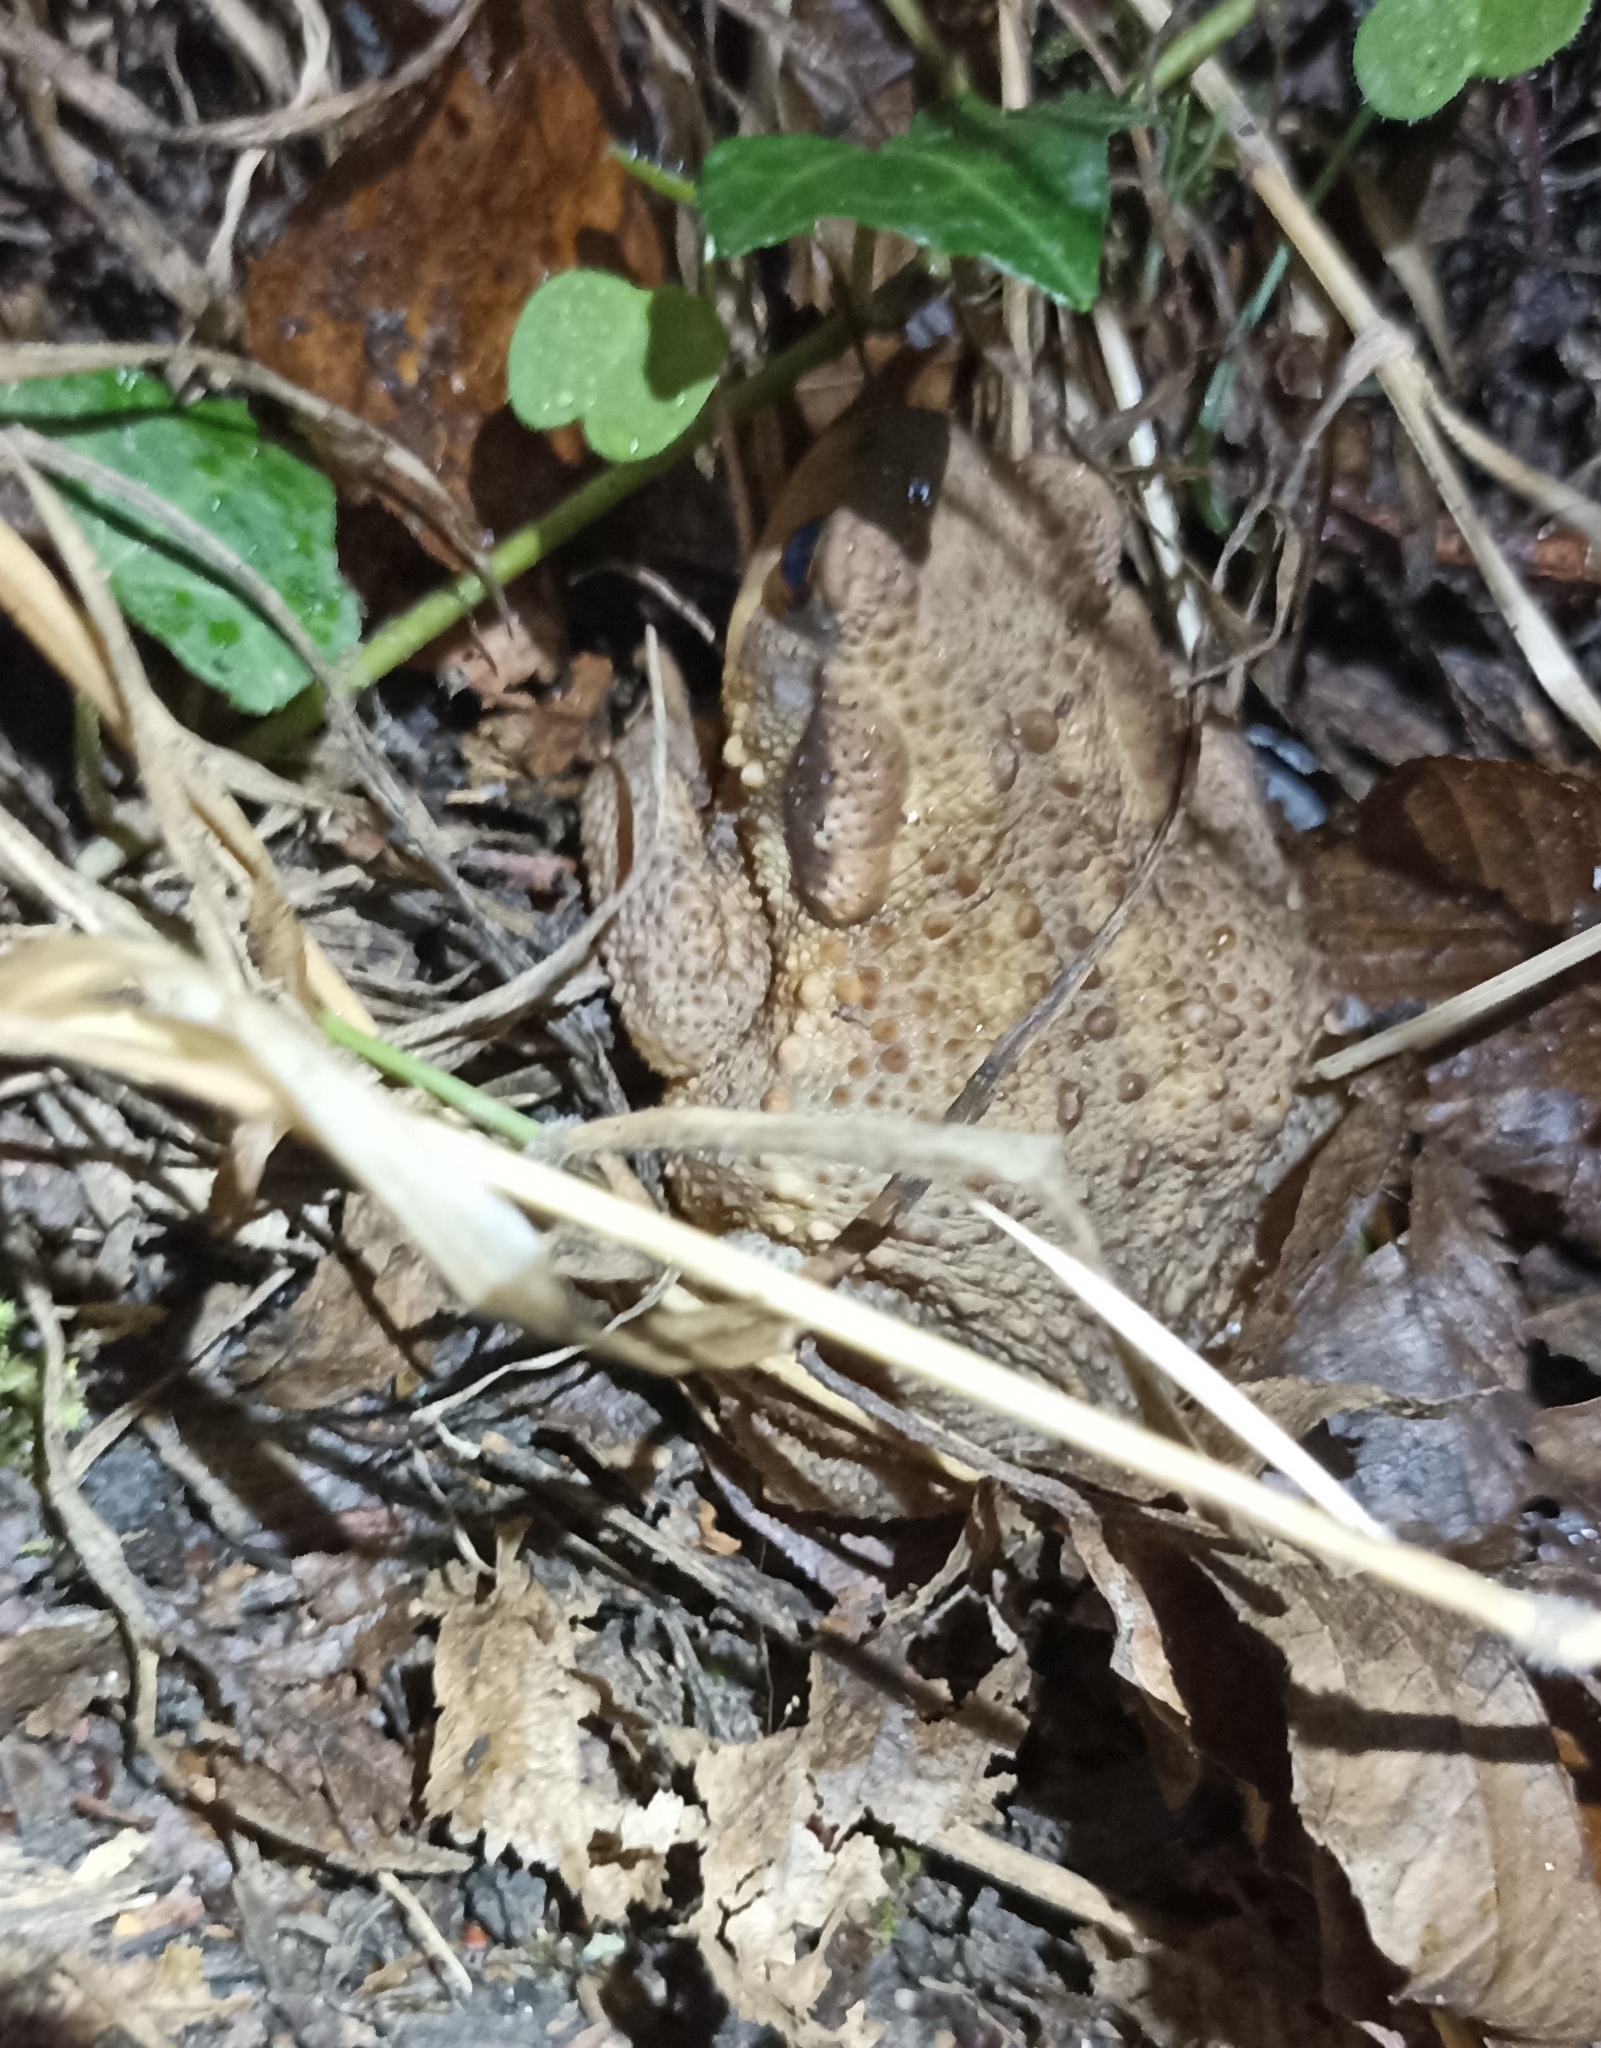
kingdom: Animalia
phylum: Chordata
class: Amphibia
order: Anura
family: Bufonidae
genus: Bufo
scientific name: Bufo spinosus
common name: Western common toad
